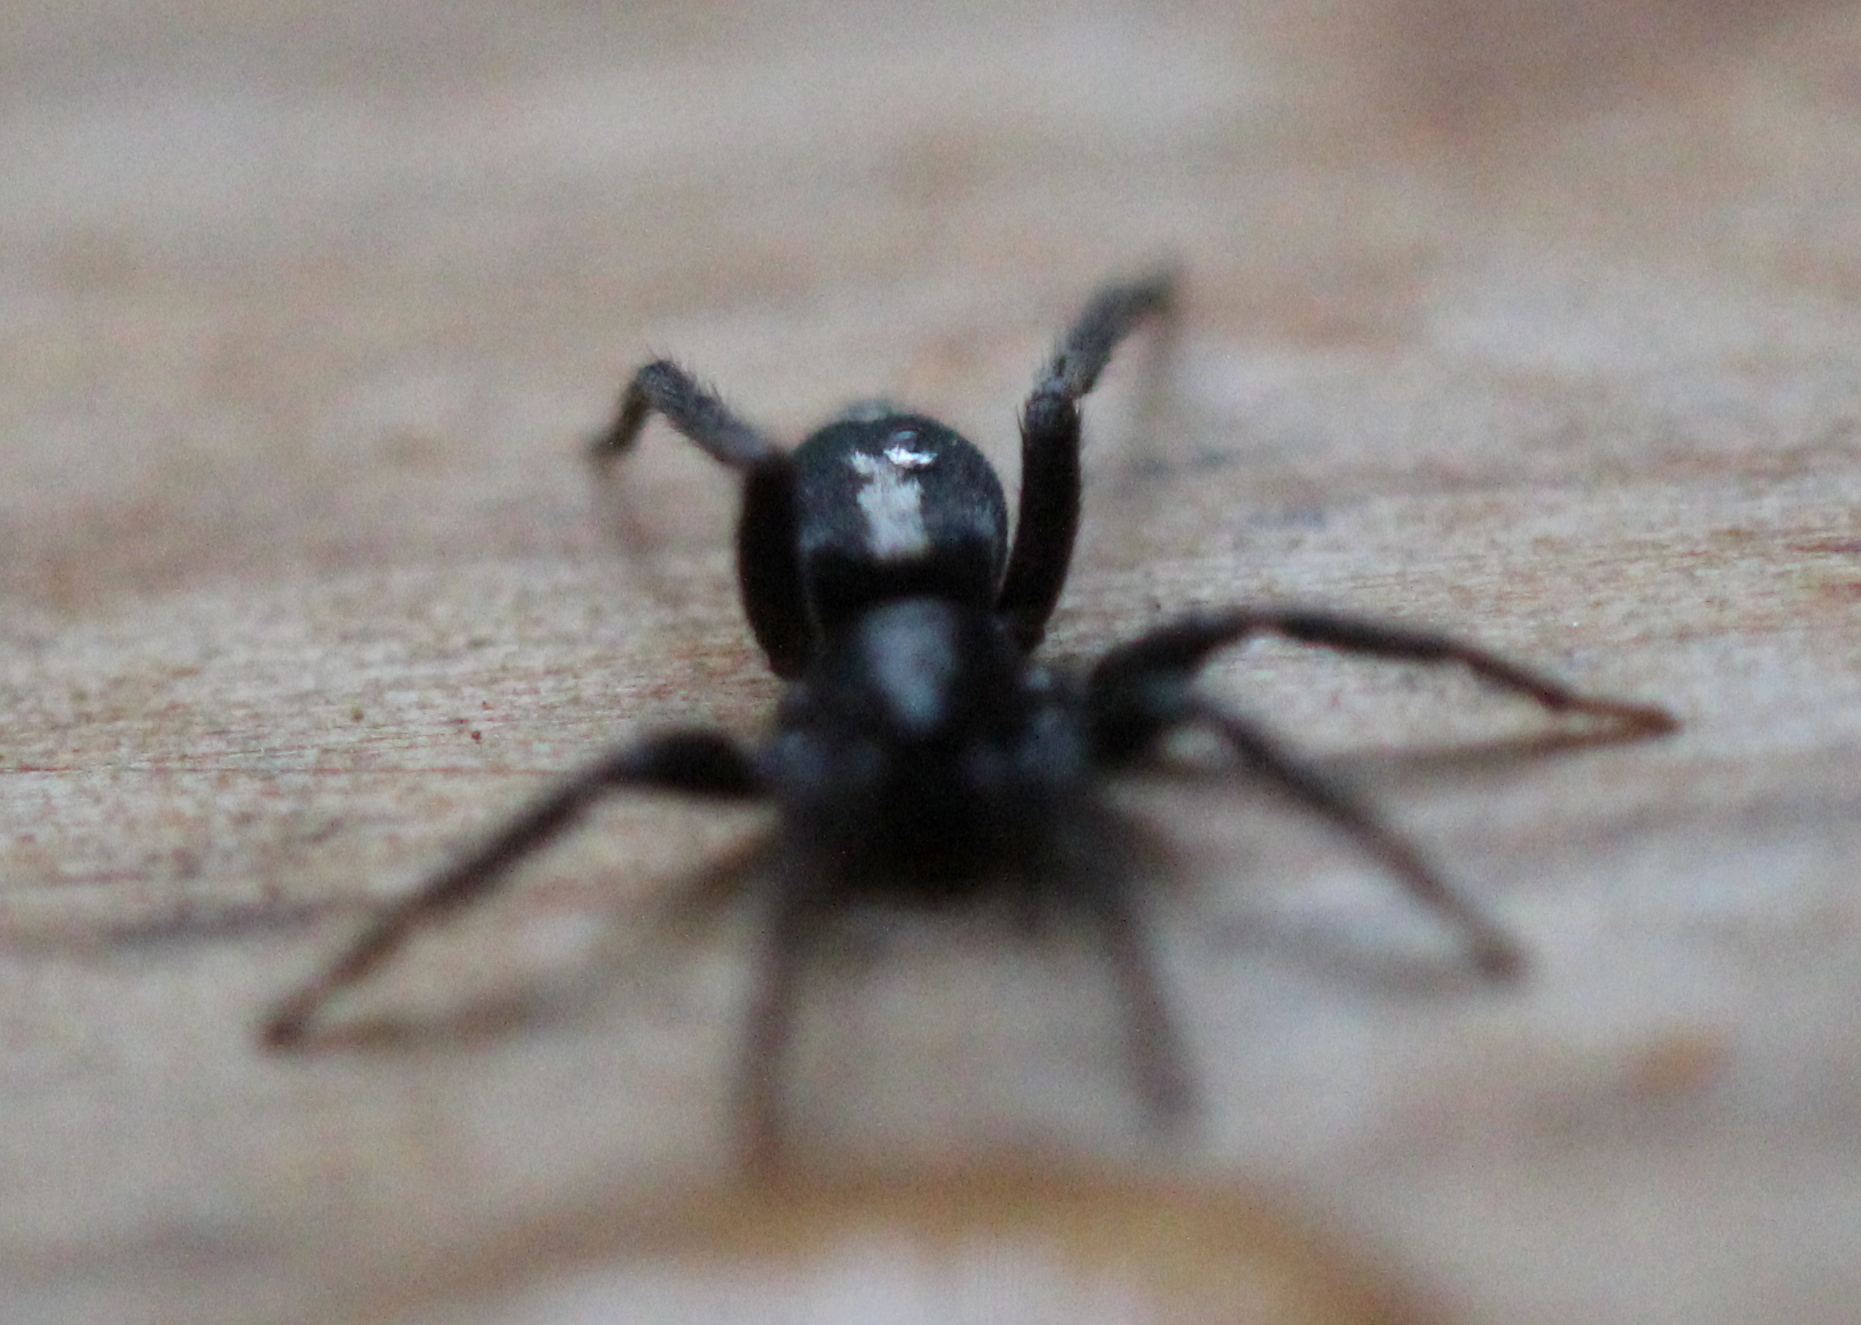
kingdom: Animalia
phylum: Arthropoda
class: Arachnida
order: Araneae
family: Gnaphosidae
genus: Herpyllus
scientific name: Herpyllus ecclesiasticus
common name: Eastern parson spider
